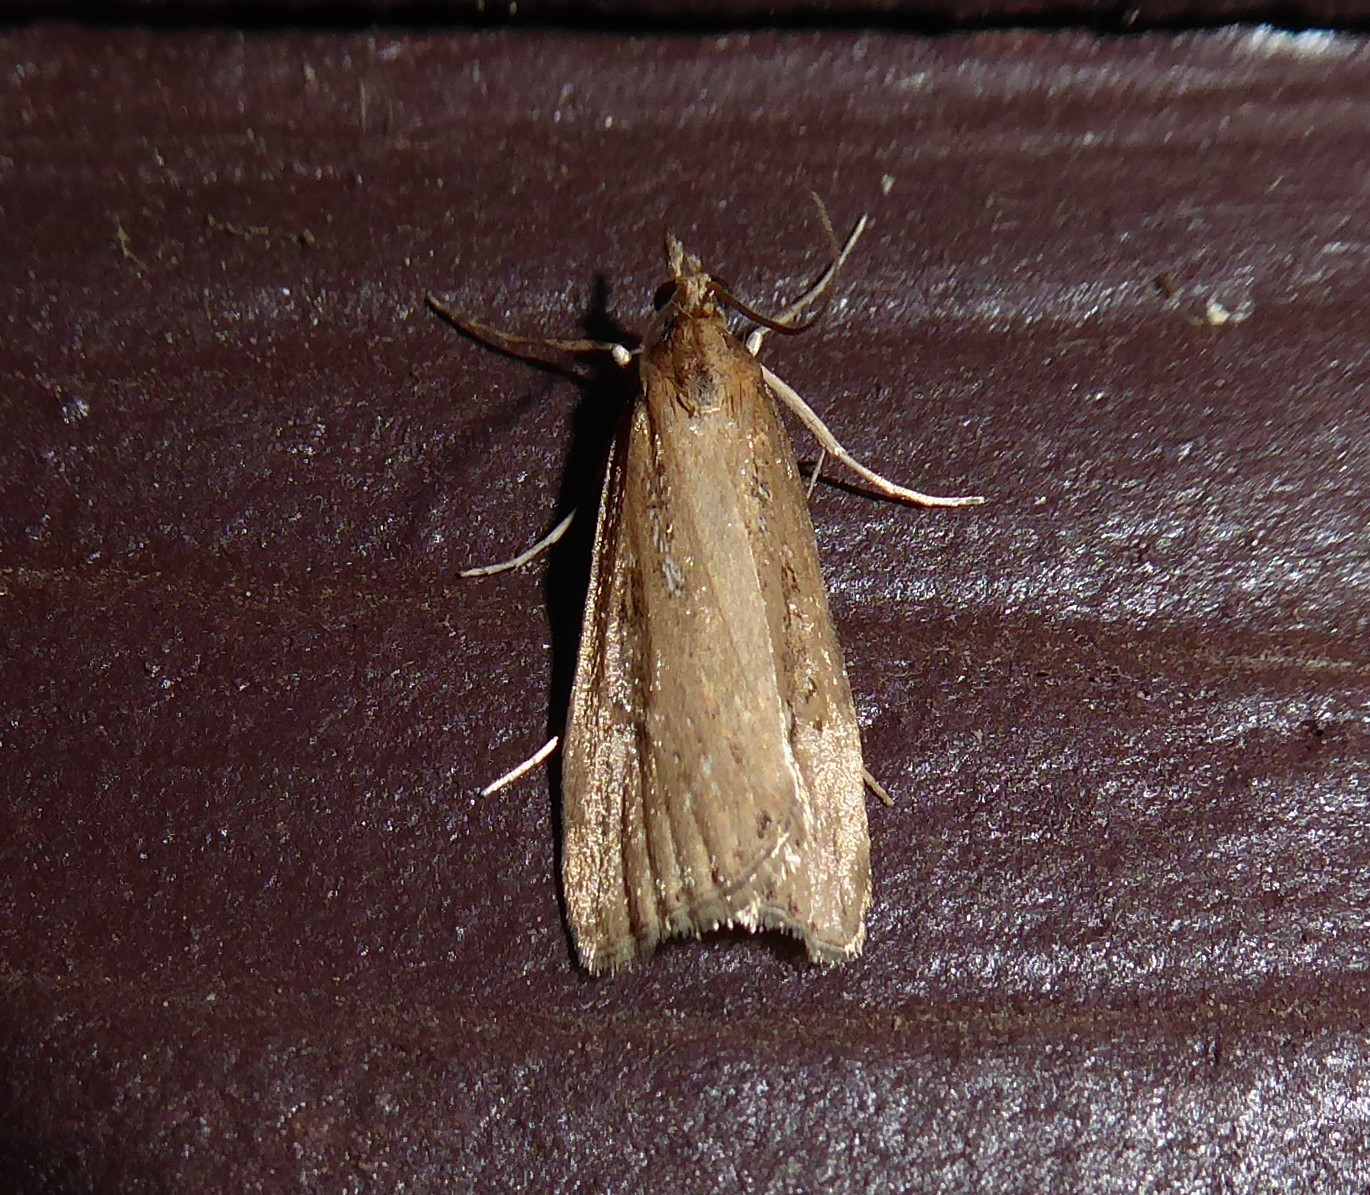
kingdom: Animalia
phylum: Arthropoda
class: Insecta
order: Lepidoptera
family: Crambidae
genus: Eudonia
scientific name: Eudonia octophora
